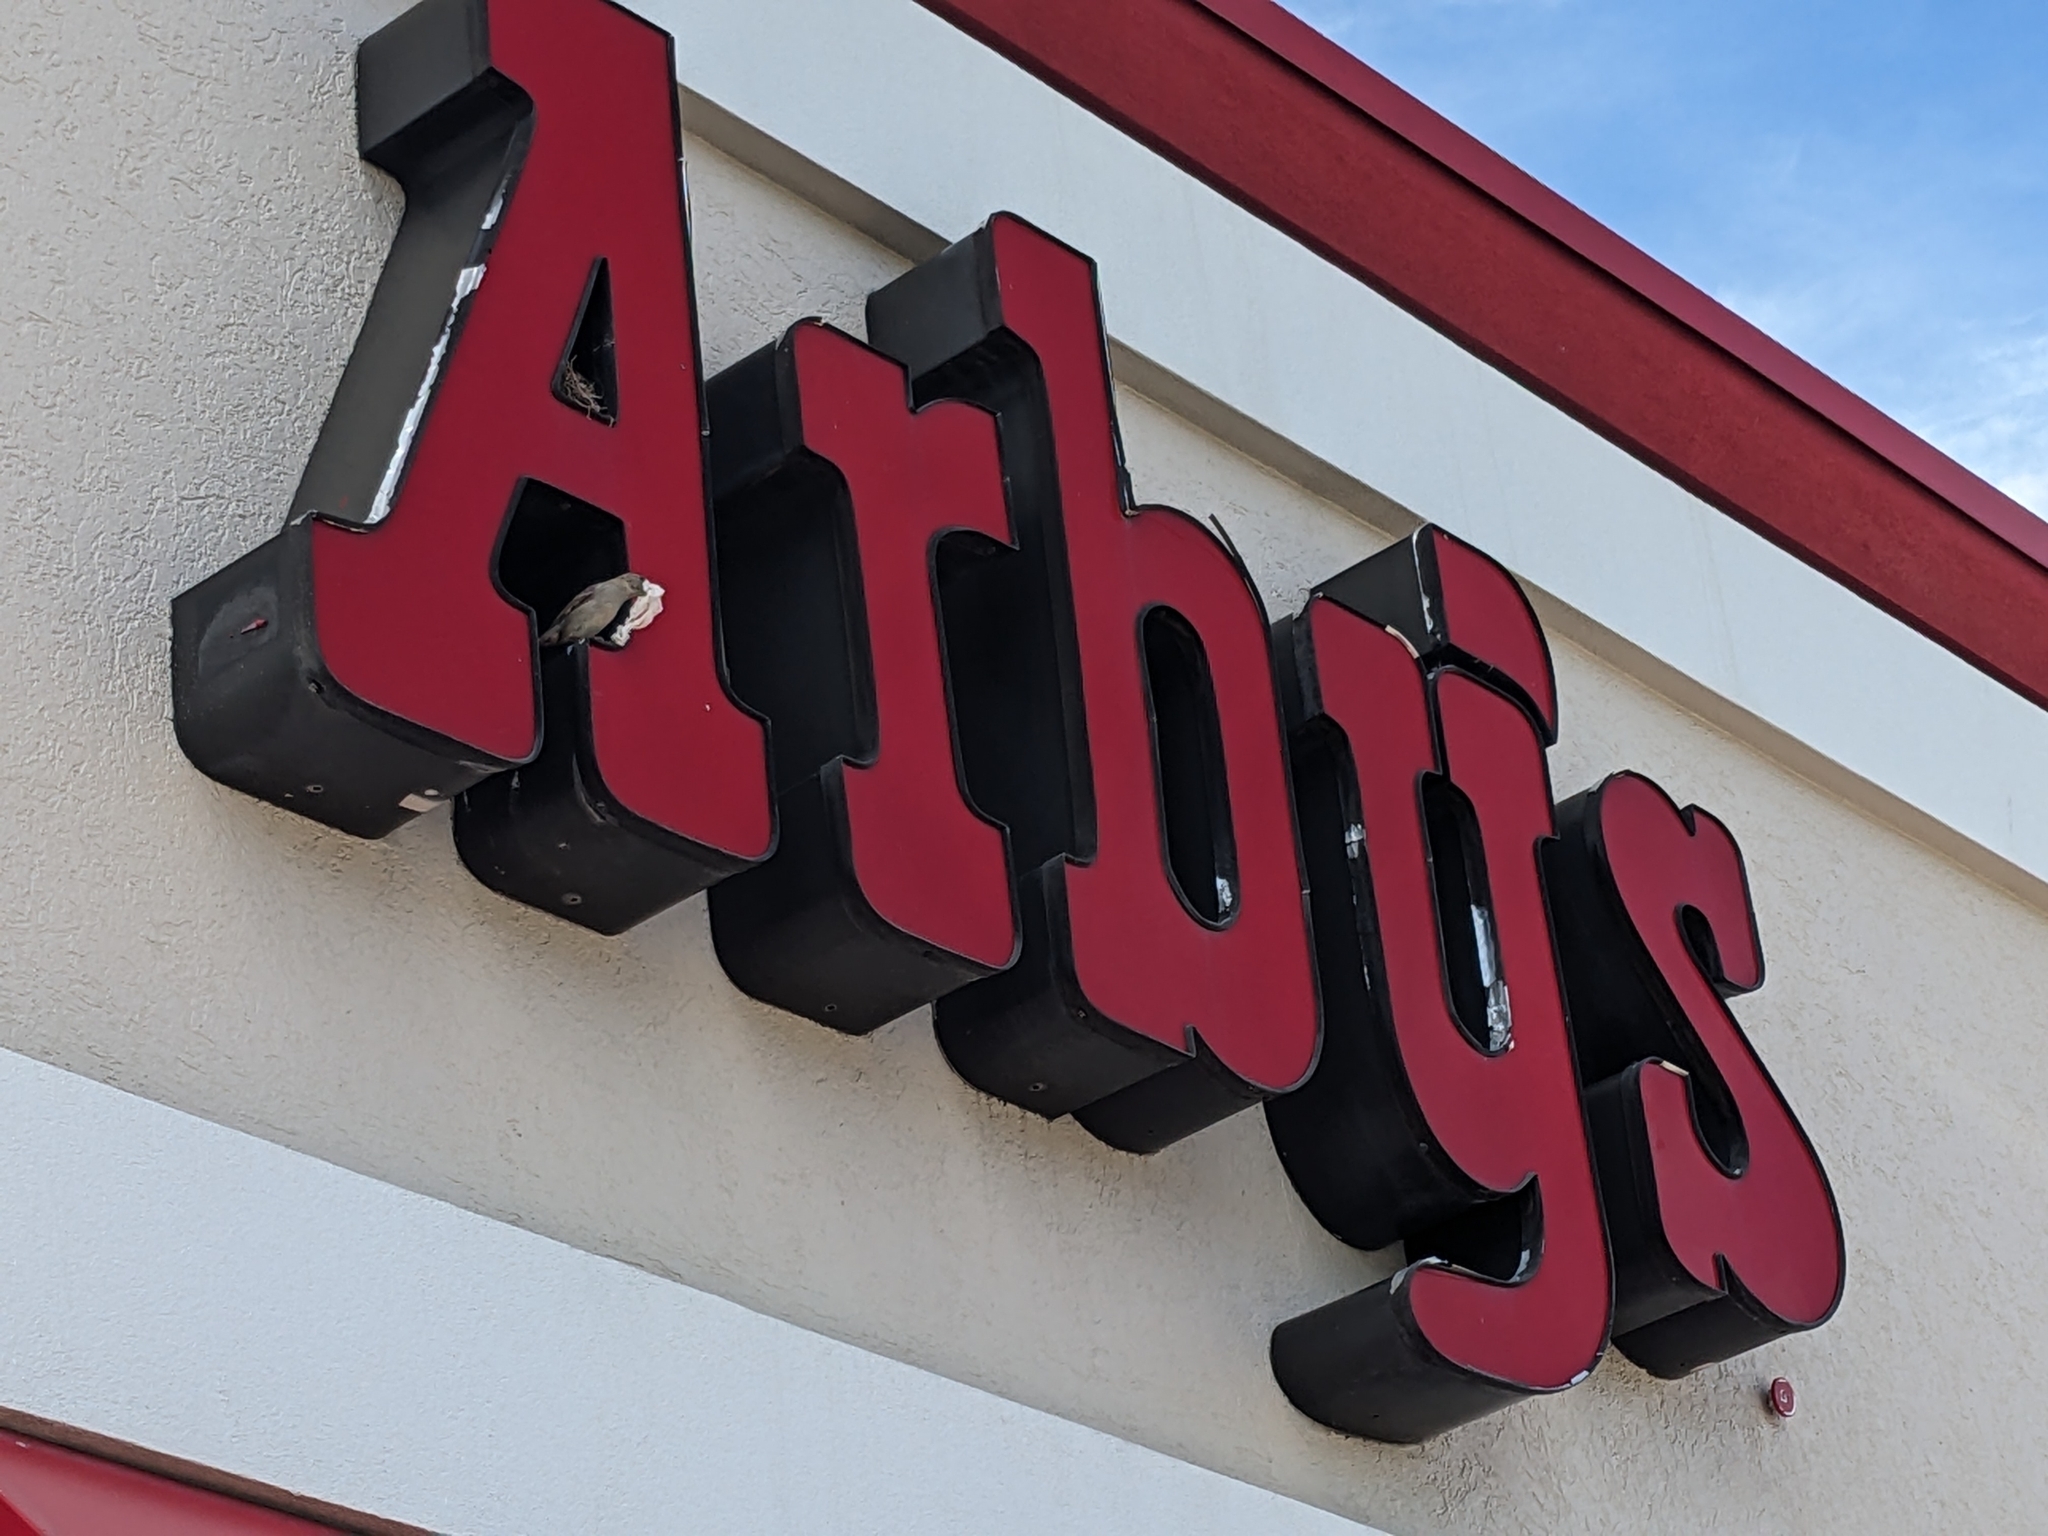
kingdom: Animalia
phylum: Chordata
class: Aves
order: Passeriformes
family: Passeridae
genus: Passer
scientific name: Passer domesticus
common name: House sparrow
